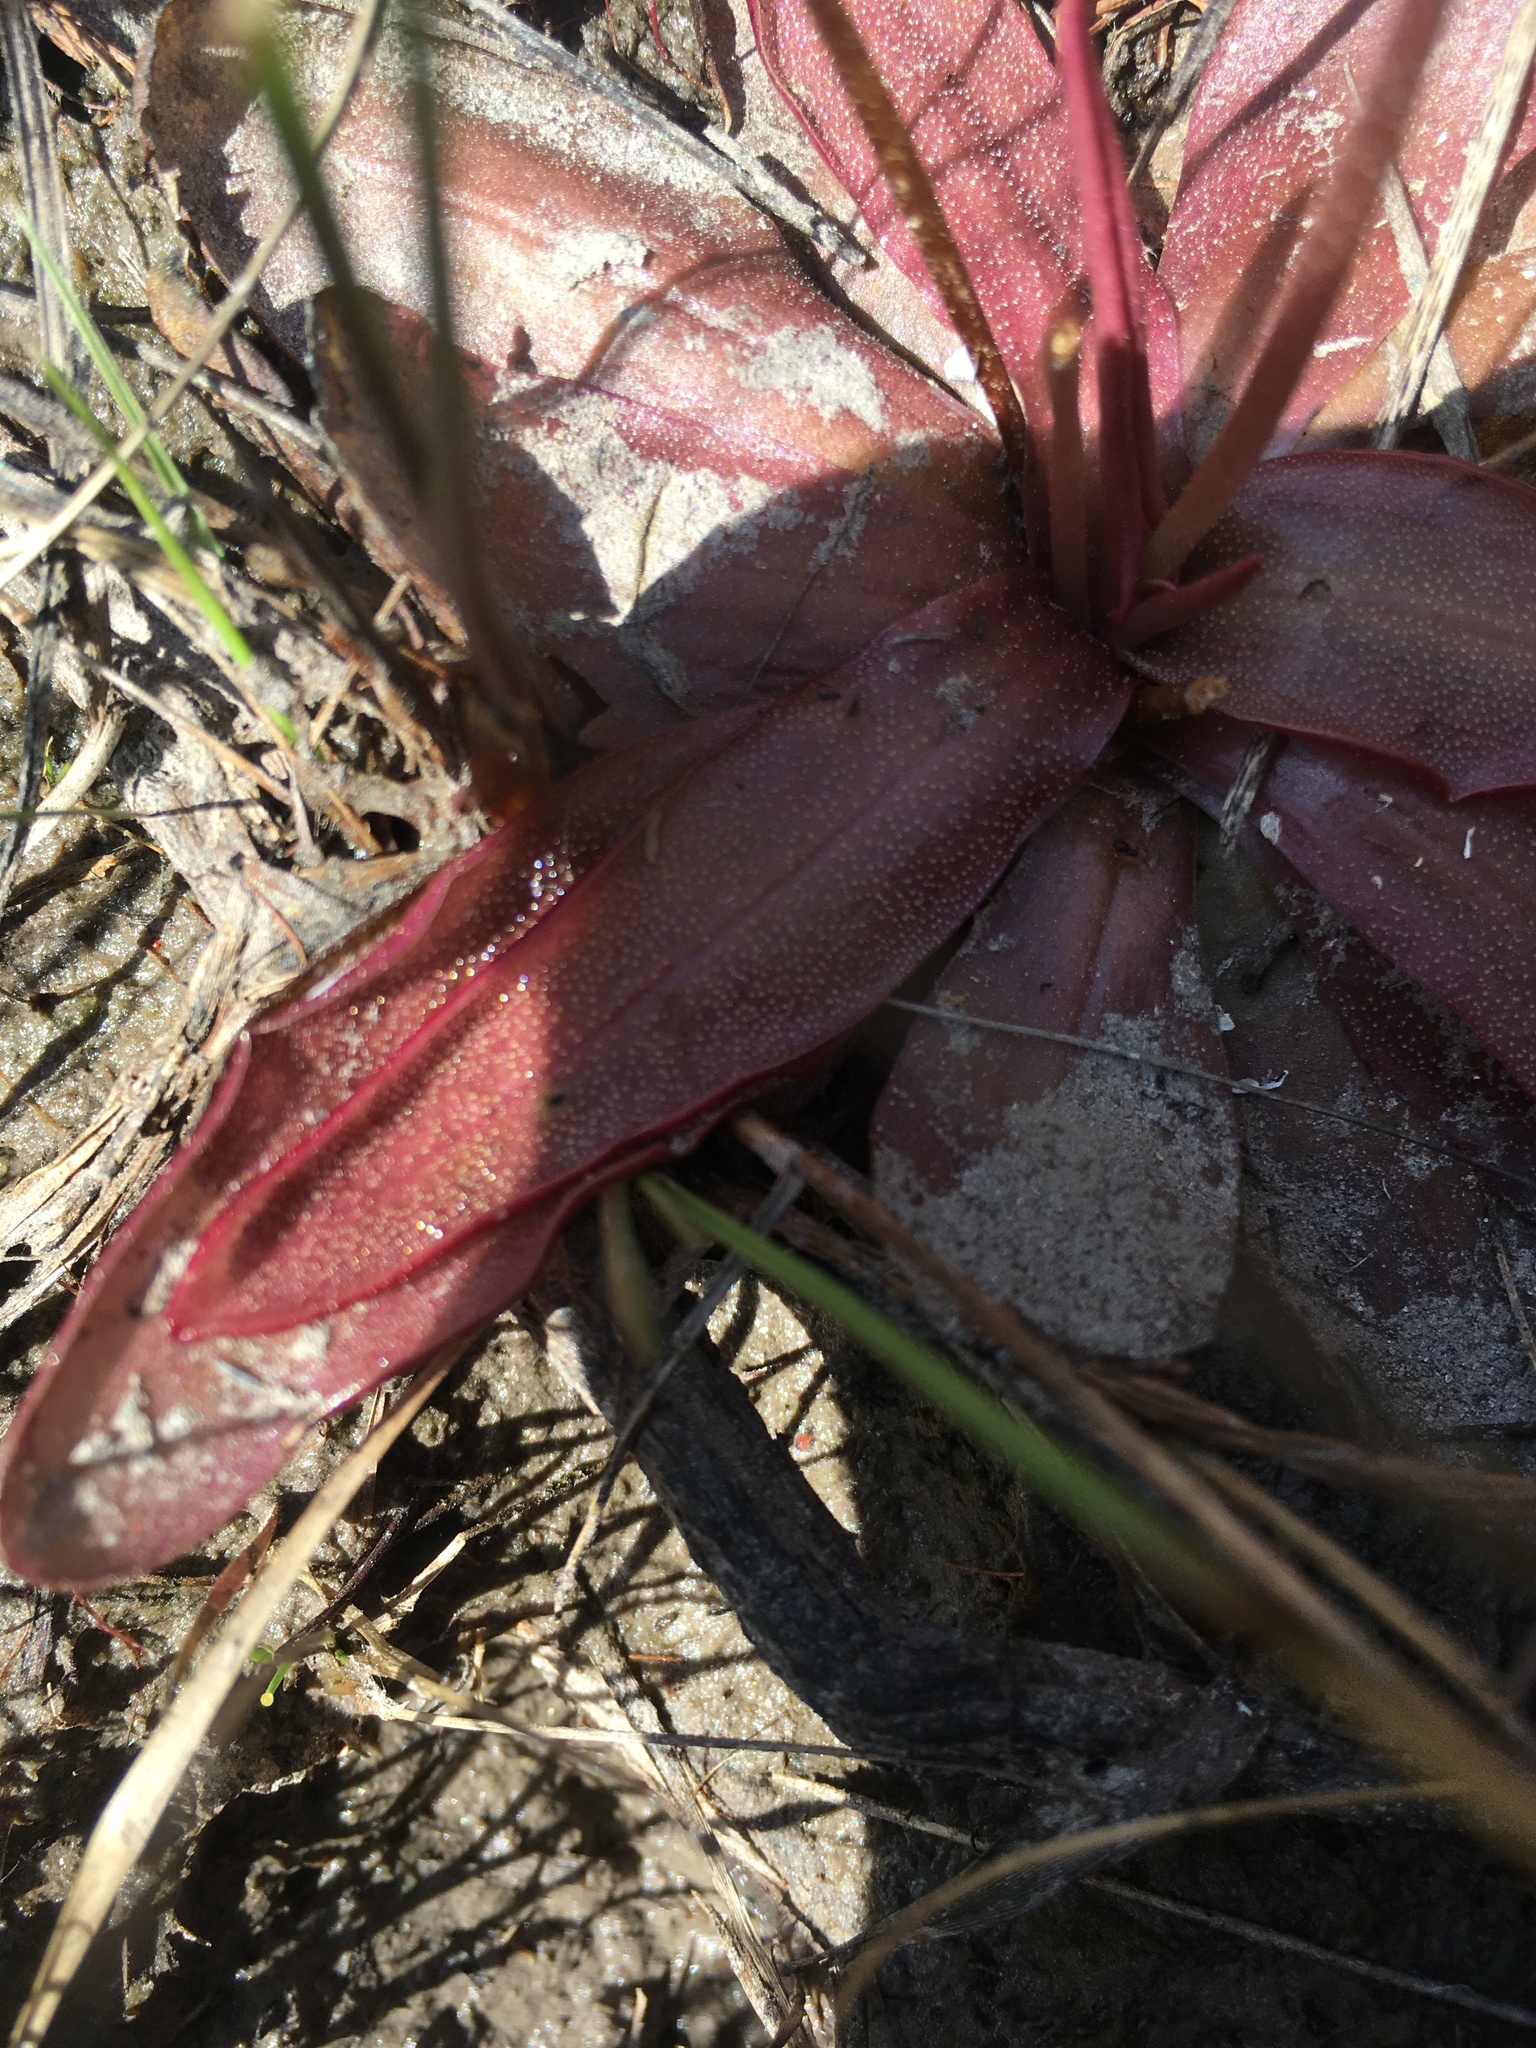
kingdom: Plantae
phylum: Tracheophyta
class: Magnoliopsida
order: Lamiales
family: Lentibulariaceae
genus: Pinguicula
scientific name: Pinguicula planifolia
